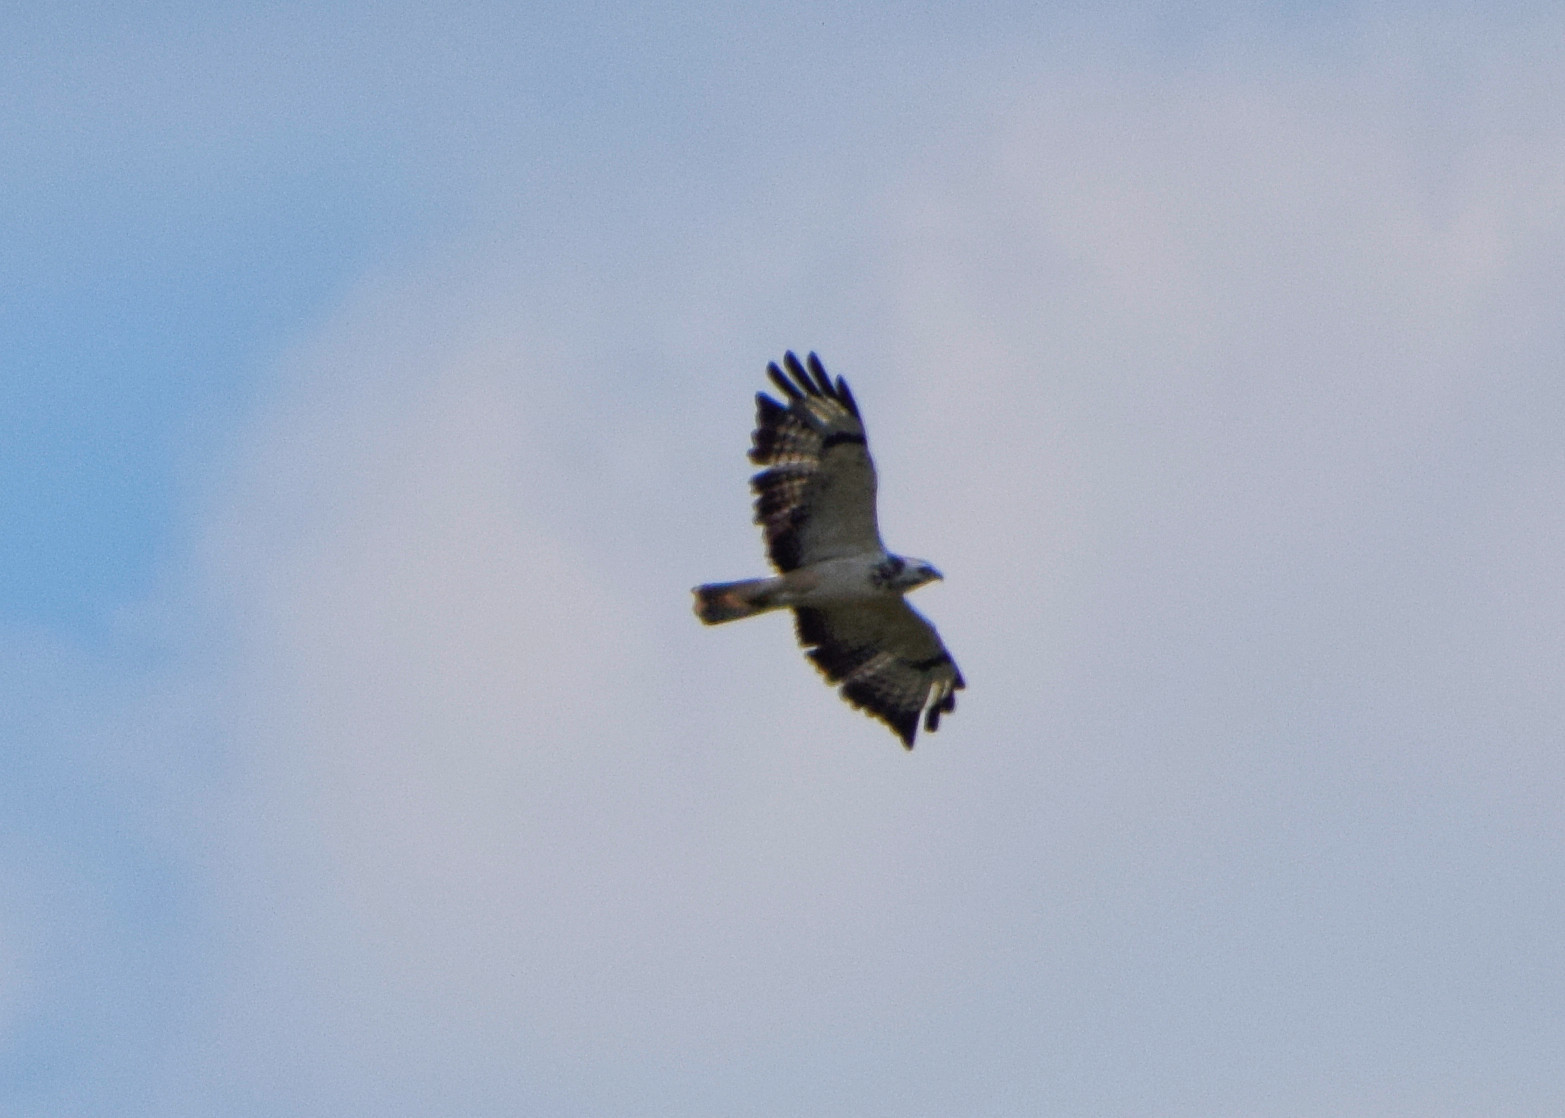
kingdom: Animalia
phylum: Chordata
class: Aves
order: Accipitriformes
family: Accipitridae
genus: Buteo
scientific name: Buteo buteo
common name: Common buzzard
